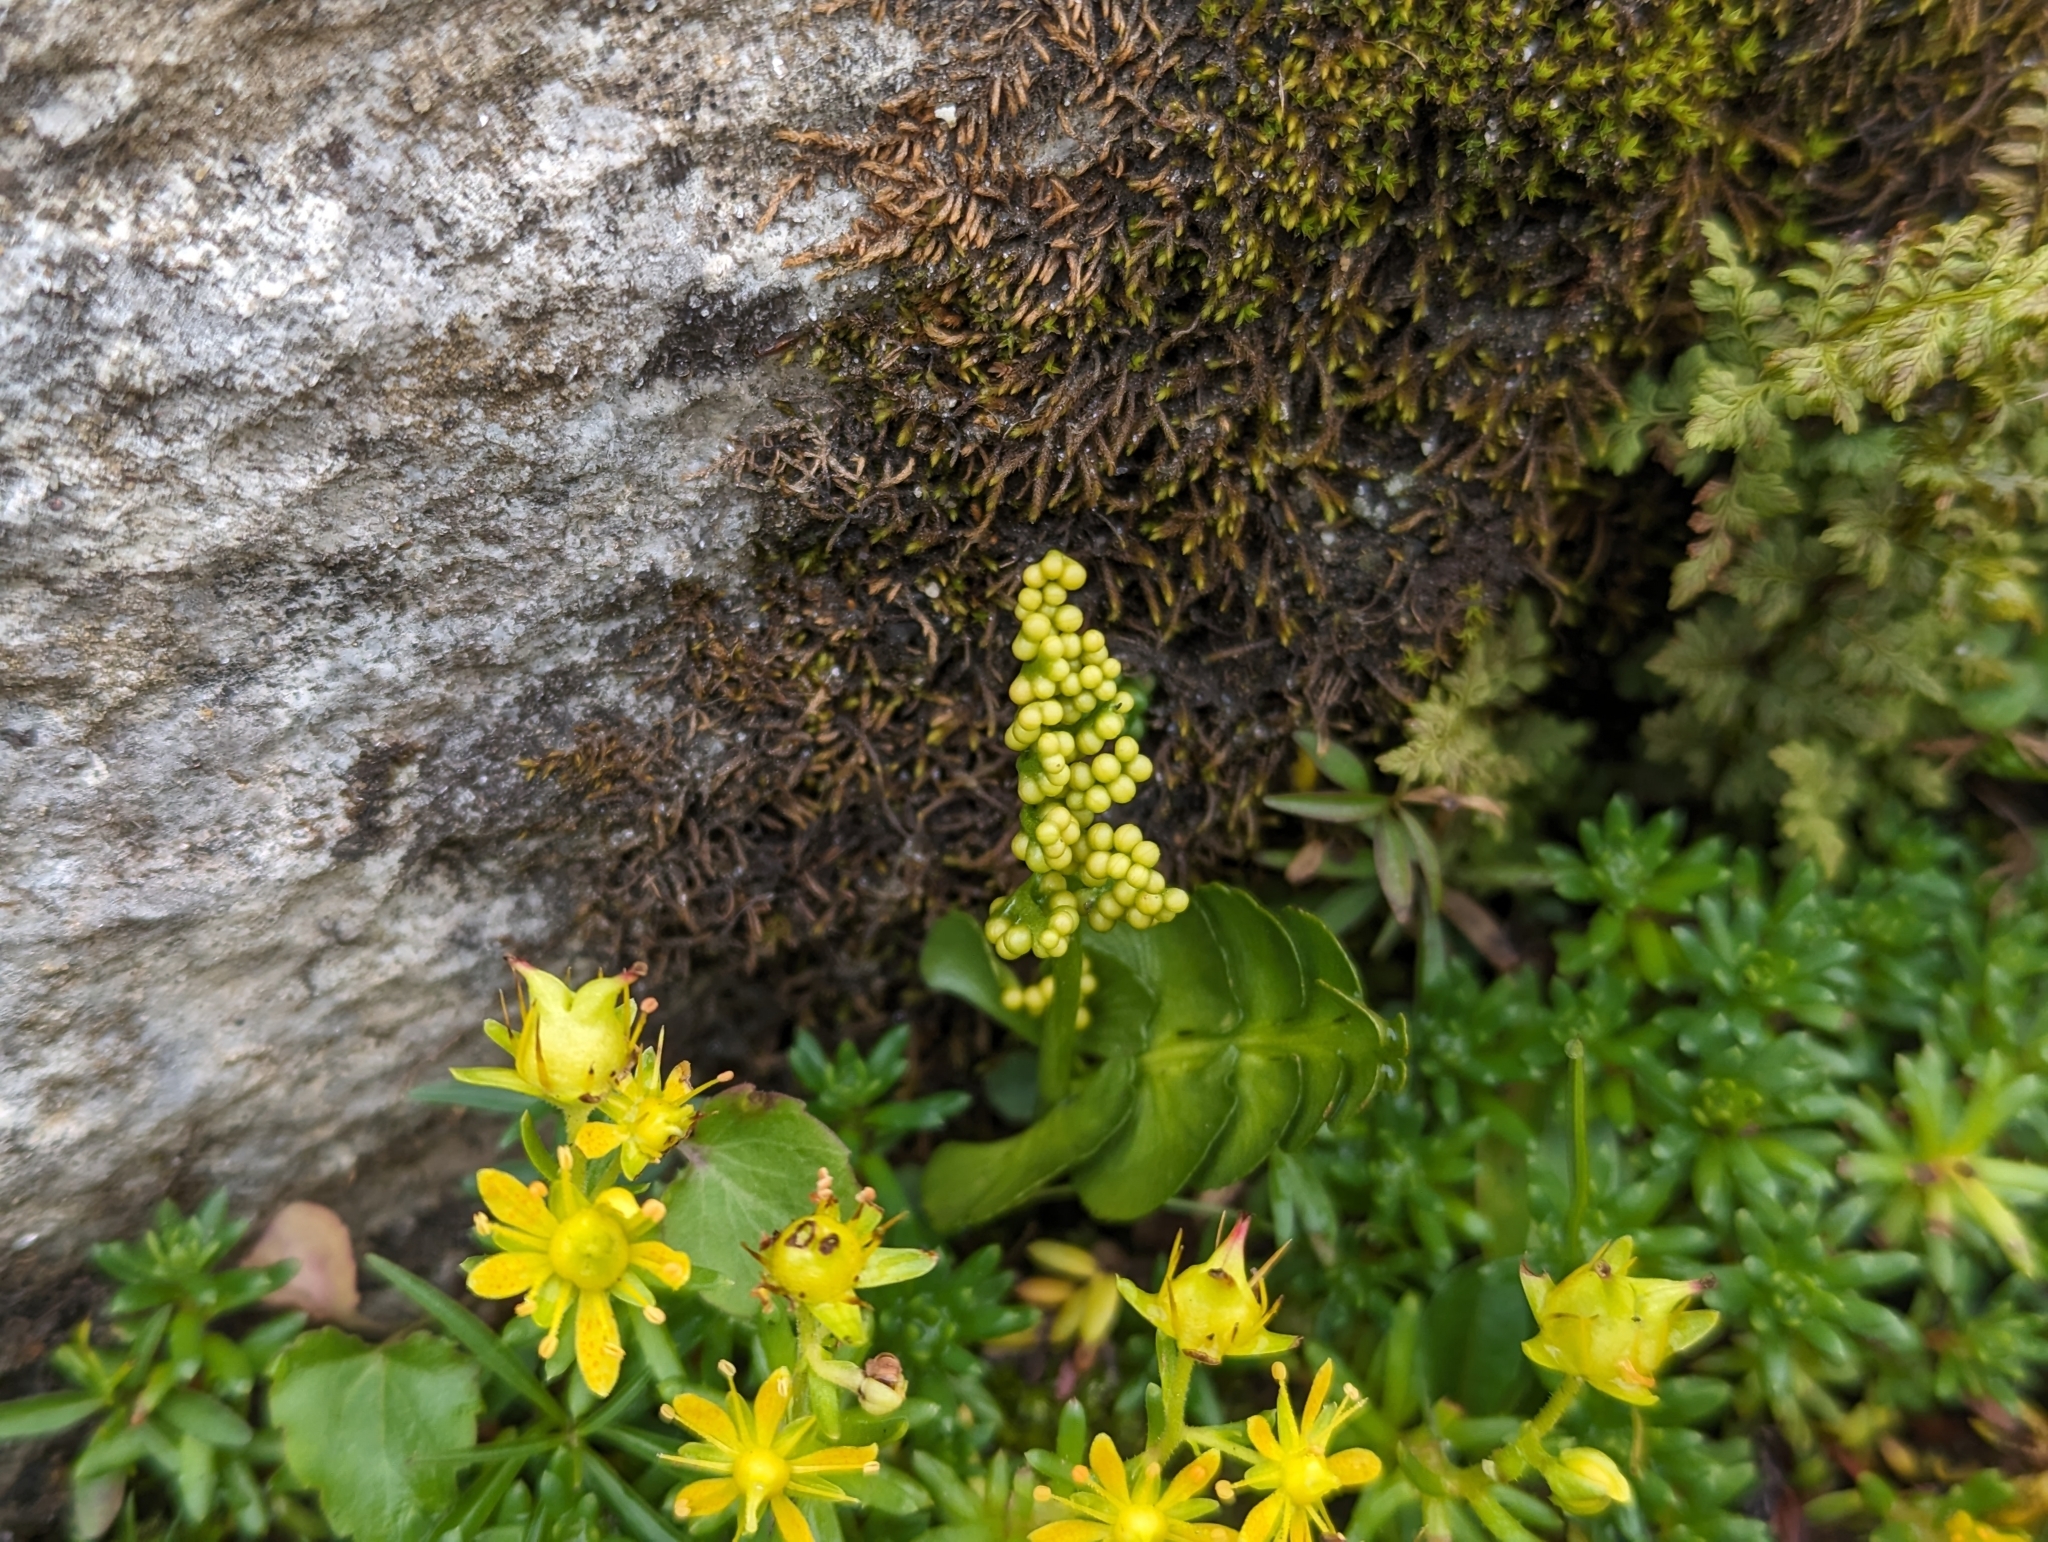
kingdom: Plantae
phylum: Tracheophyta
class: Polypodiopsida
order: Ophioglossales
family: Ophioglossaceae
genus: Botrychium
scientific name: Botrychium lunaria
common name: Moonwort
